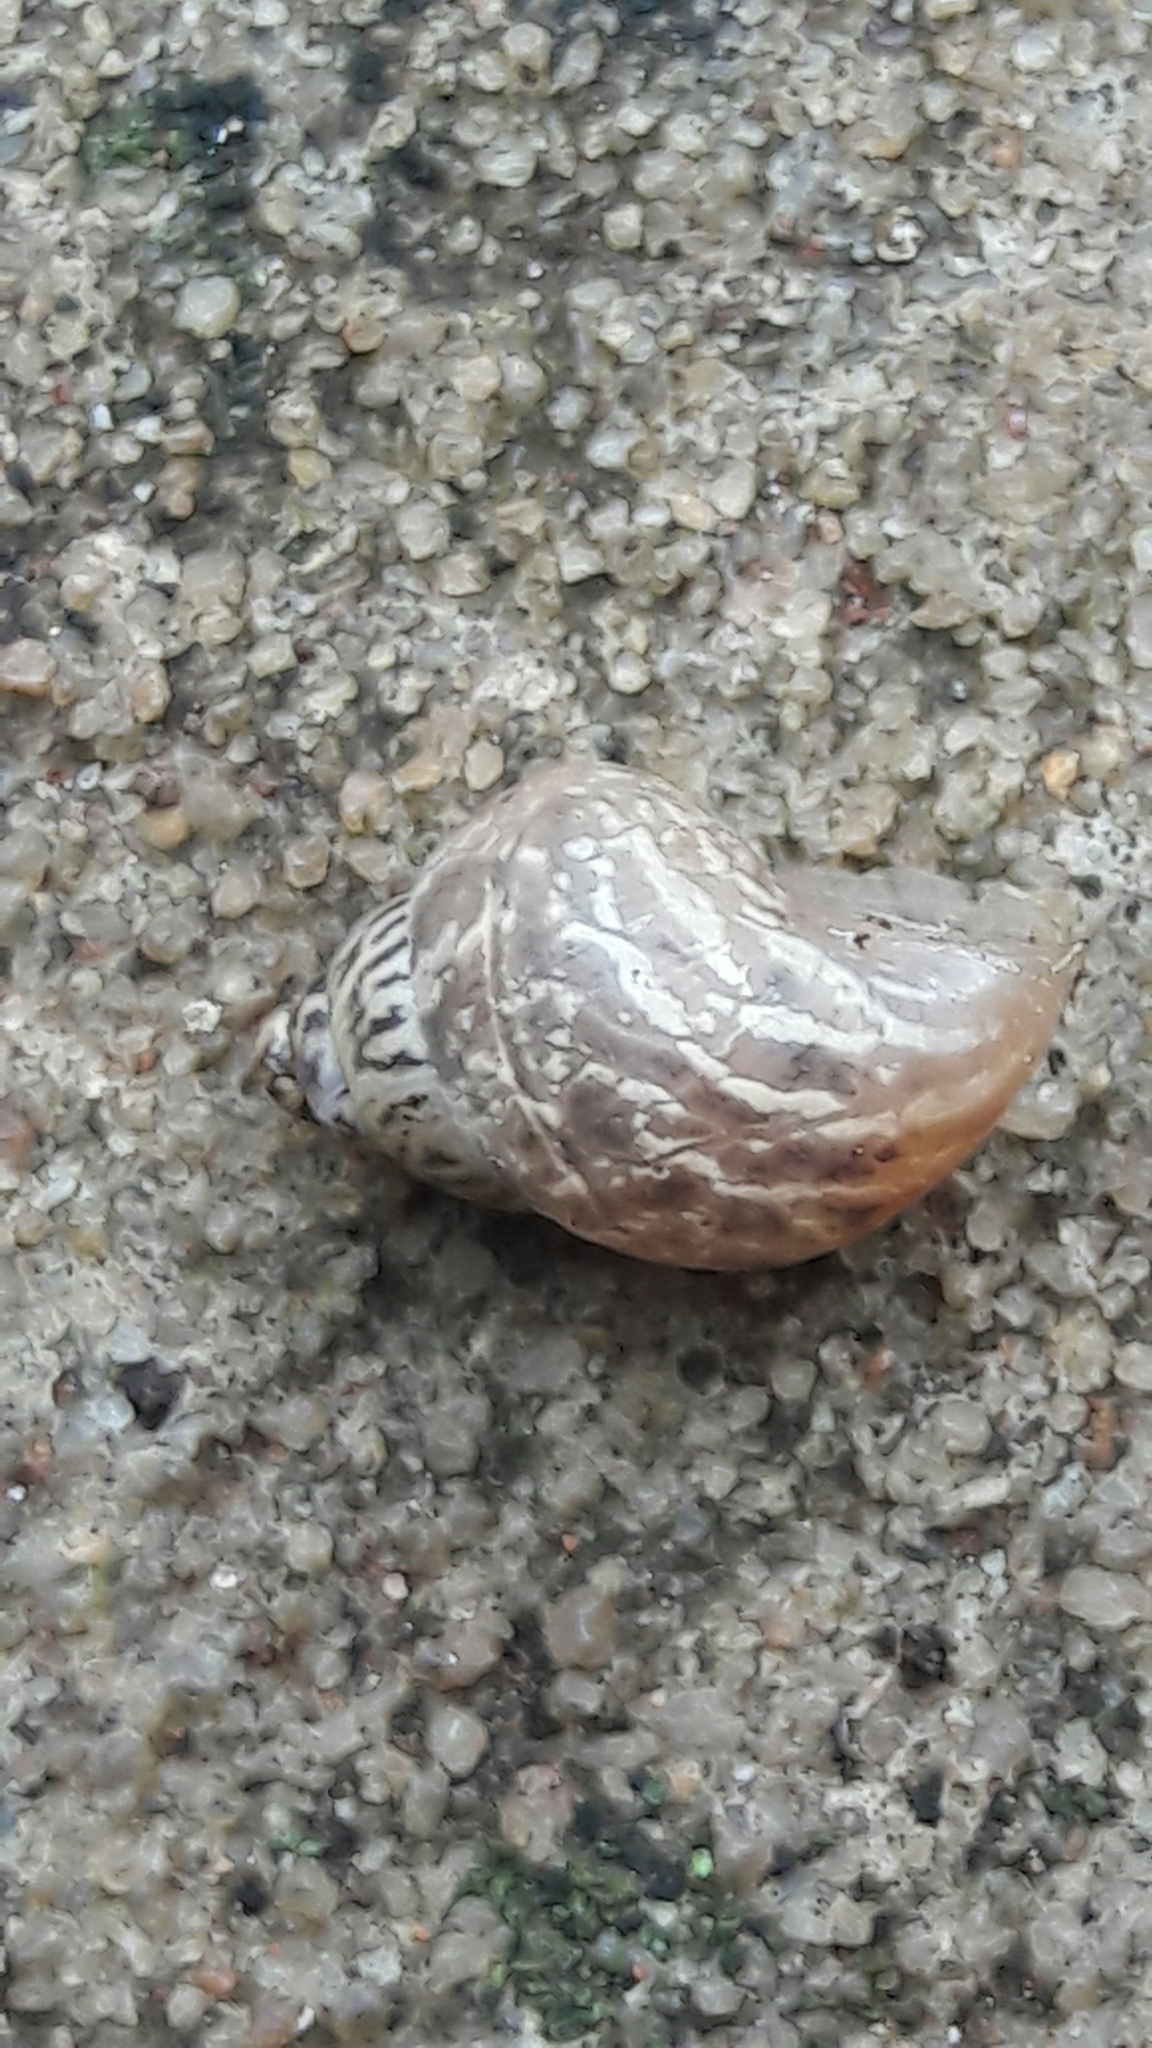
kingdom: Animalia
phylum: Mollusca
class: Gastropoda
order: Stylommatophora
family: Bulimulidae
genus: Bulimulus
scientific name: Bulimulus tenuissimus
